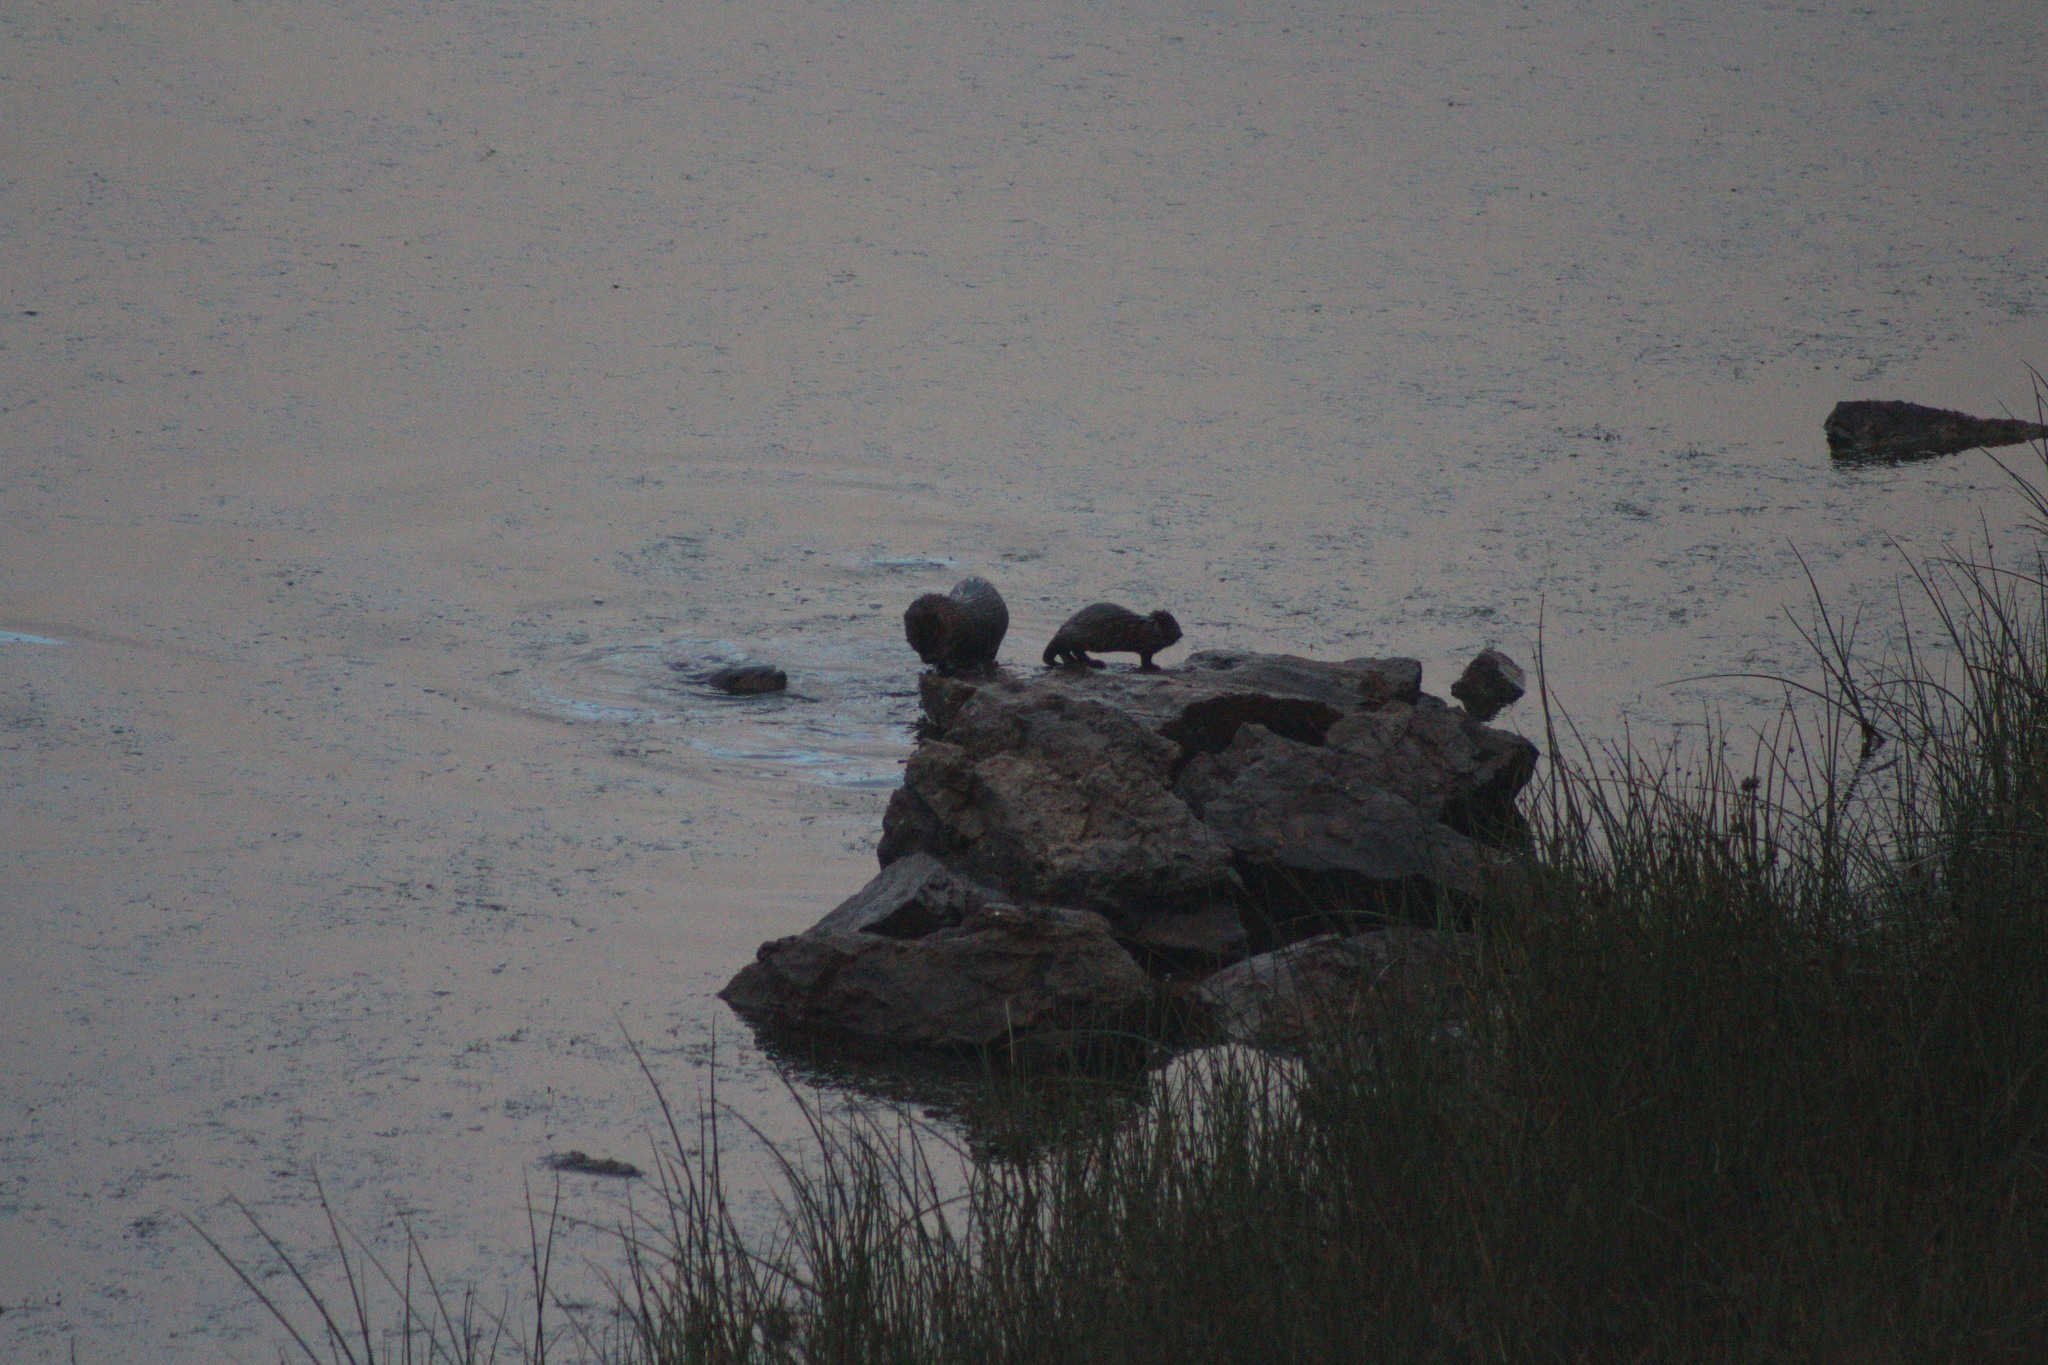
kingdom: Animalia
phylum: Chordata
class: Mammalia
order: Carnivora
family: Mustelidae
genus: Lontra
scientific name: Lontra canadensis
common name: North american river otter
